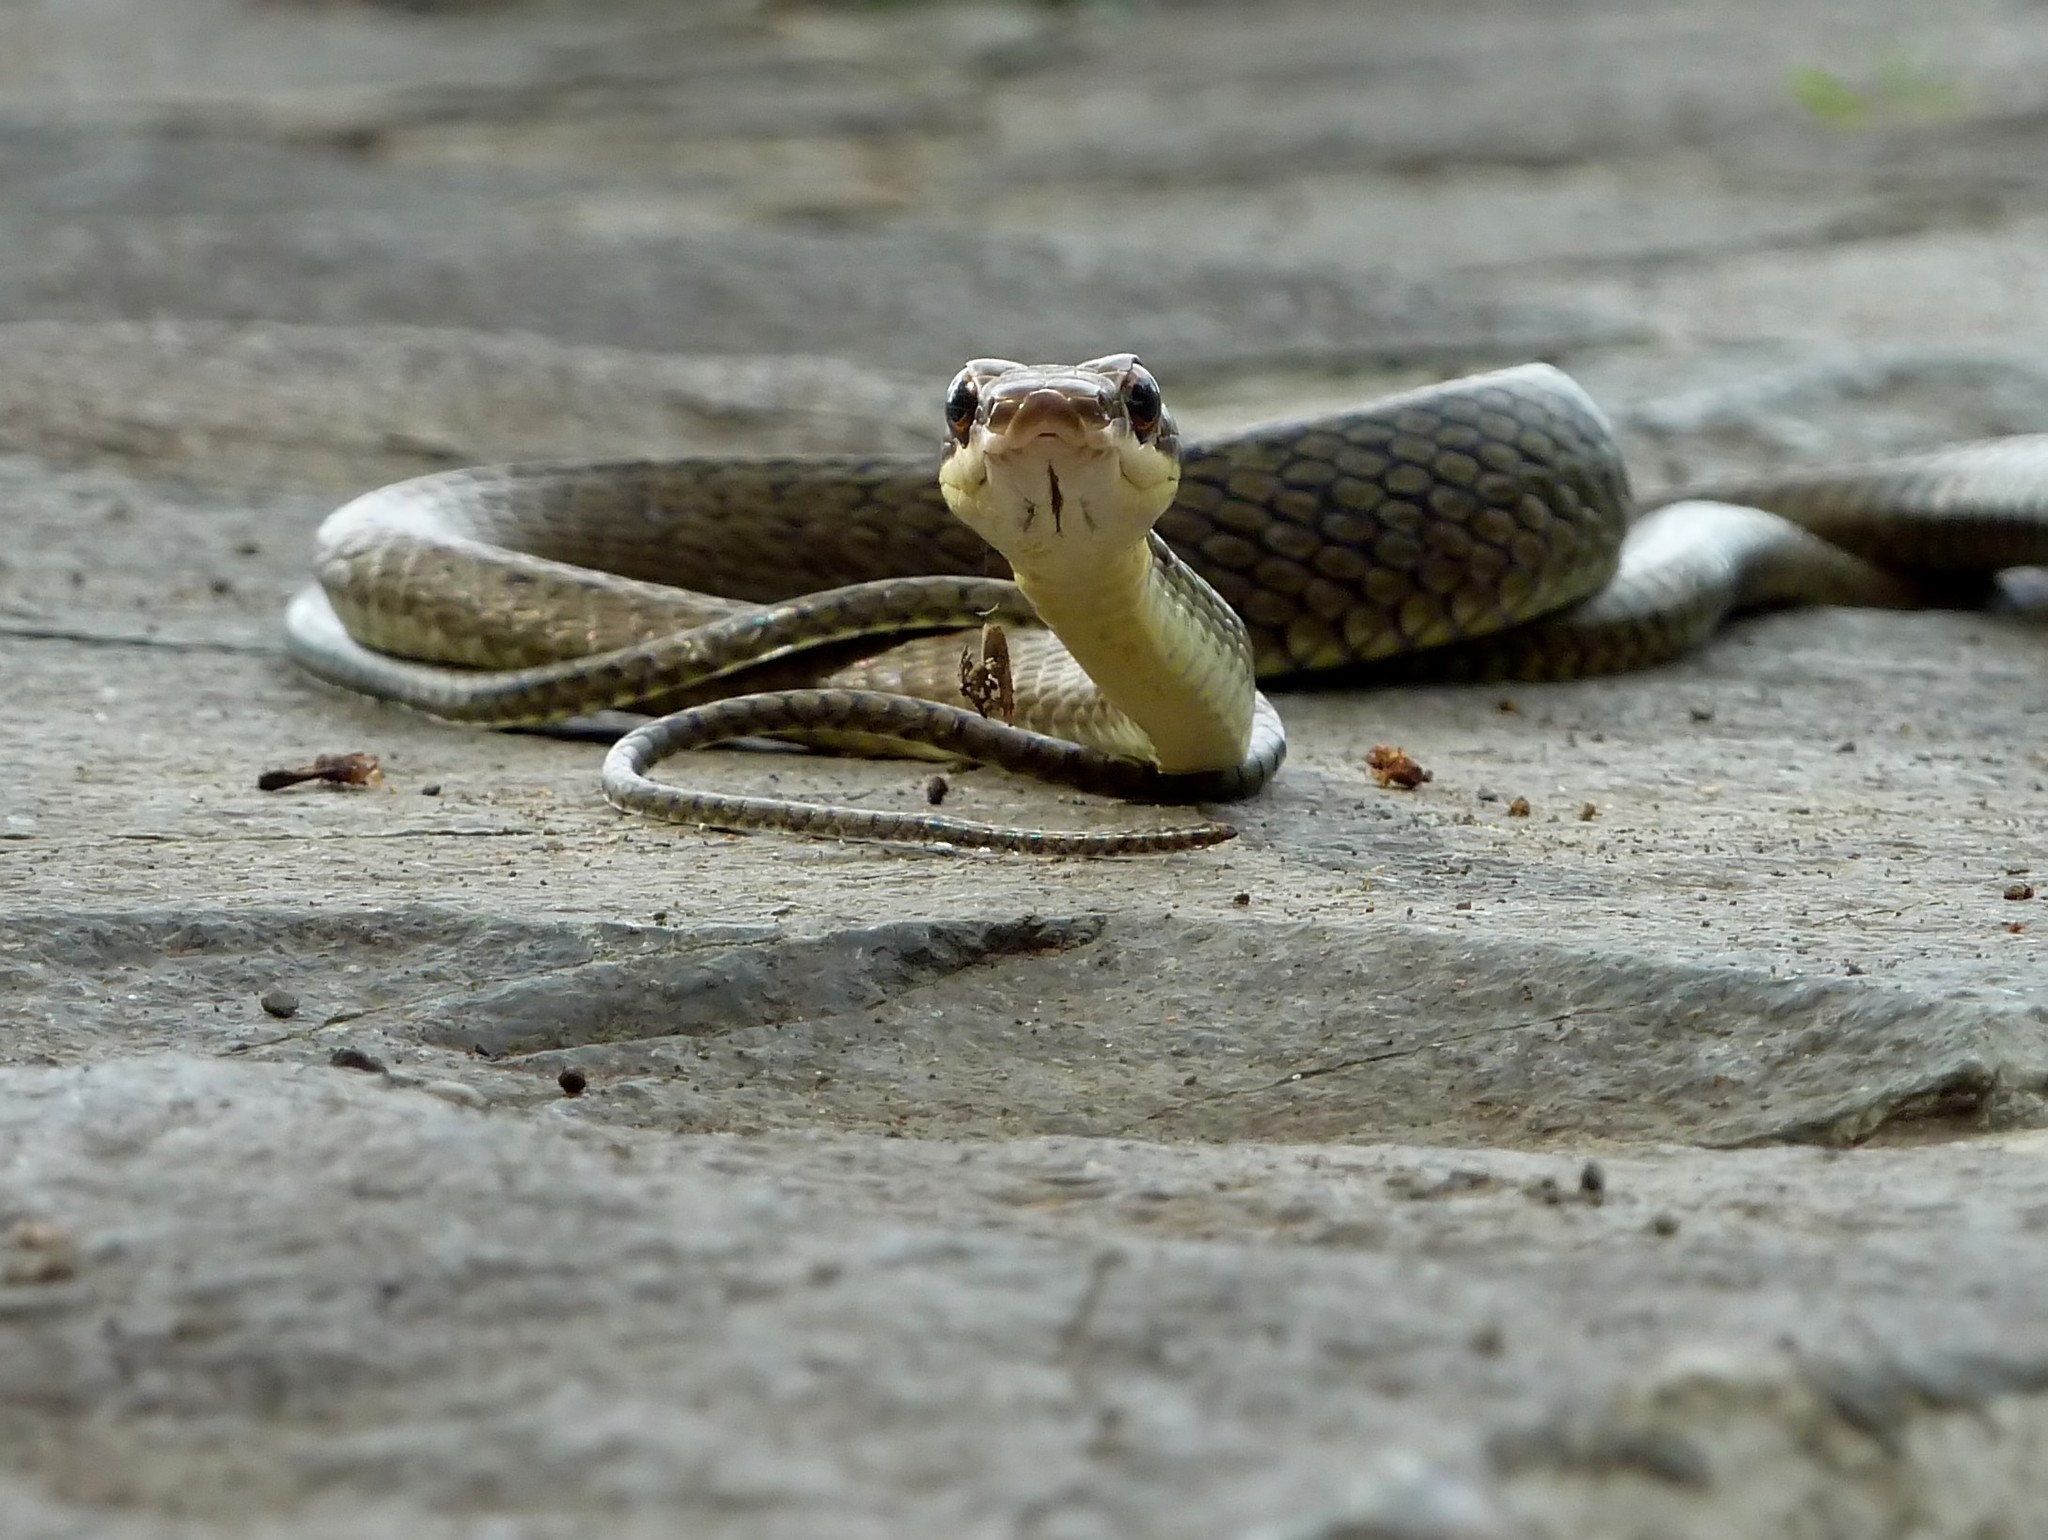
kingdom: Animalia
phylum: Chordata
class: Squamata
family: Colubridae
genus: Ptyas
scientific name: Ptyas dipsas
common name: Sulawesi black racer
